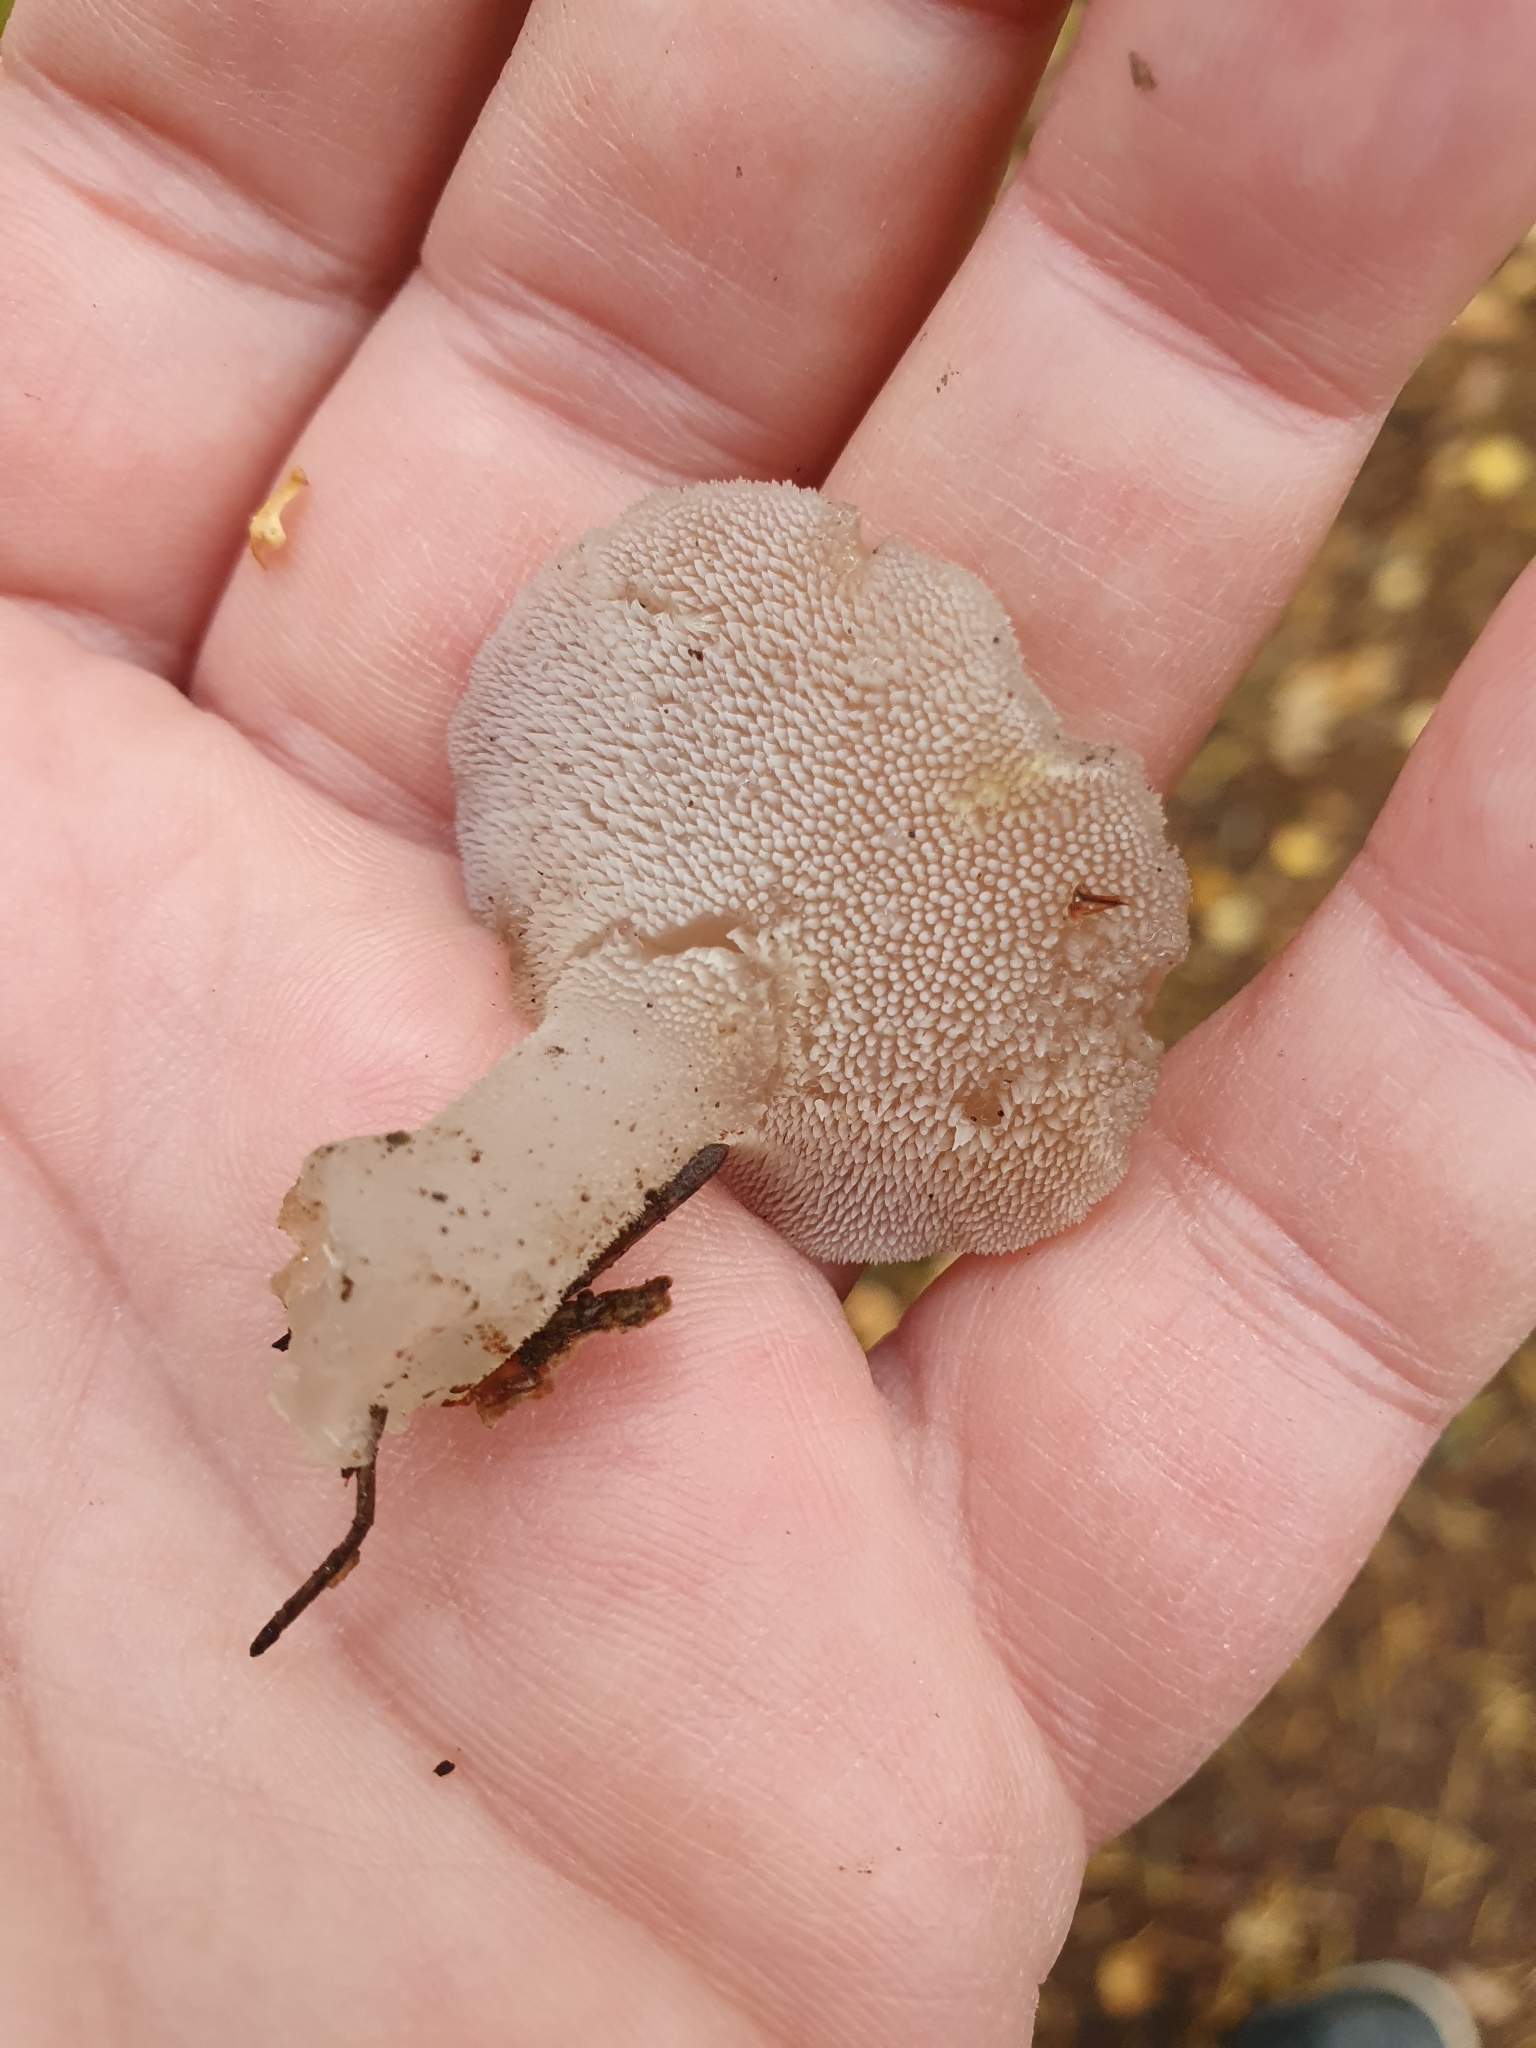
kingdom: Fungi
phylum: Basidiomycota
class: Agaricomycetes
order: Auriculariales
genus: Pseudohydnum
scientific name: Pseudohydnum gelatinosum
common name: Jelly tongue
